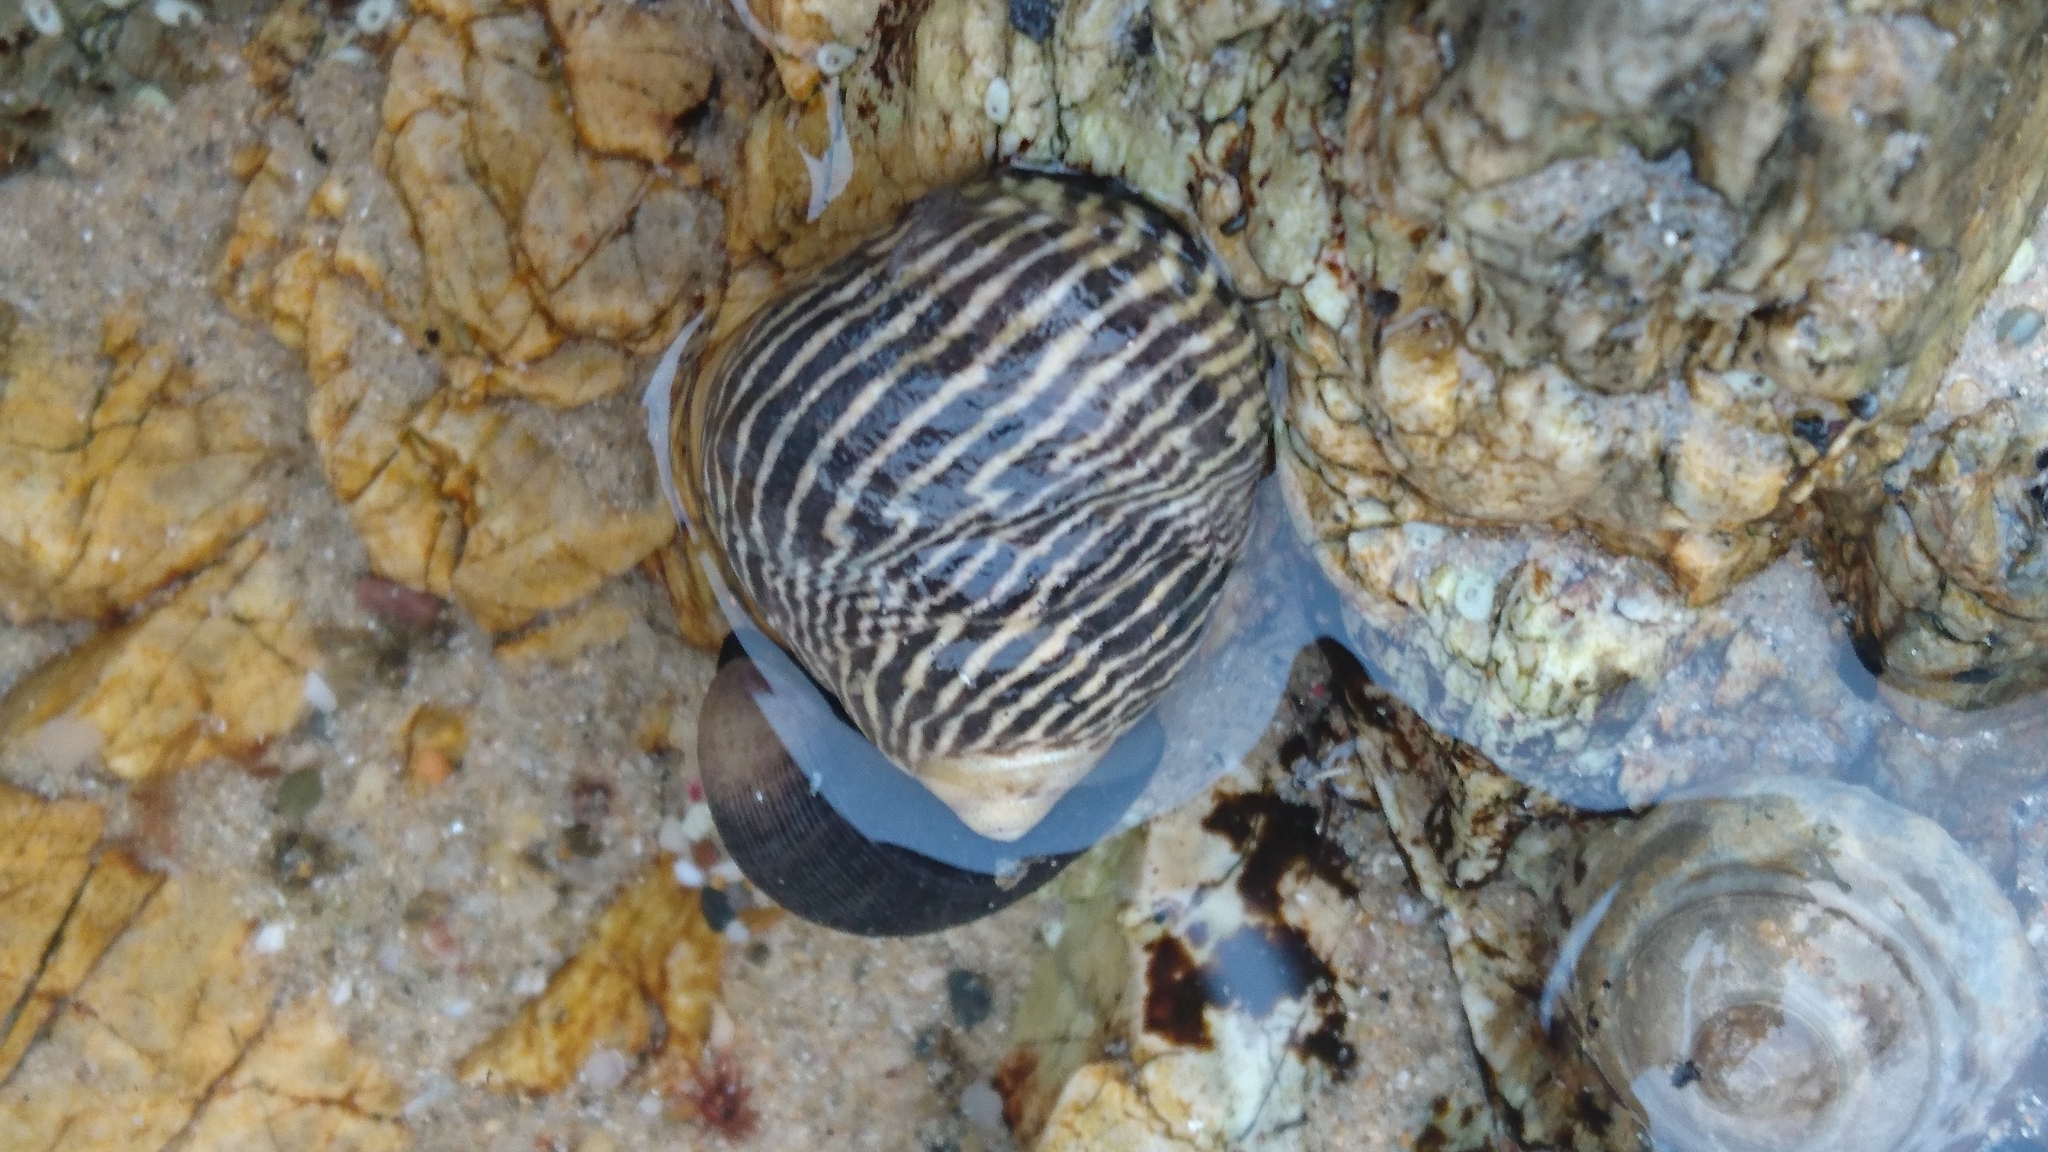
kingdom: Animalia
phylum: Mollusca
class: Gastropoda
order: Trochida
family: Trochidae
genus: Austrocochlea
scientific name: Austrocochlea porcata
